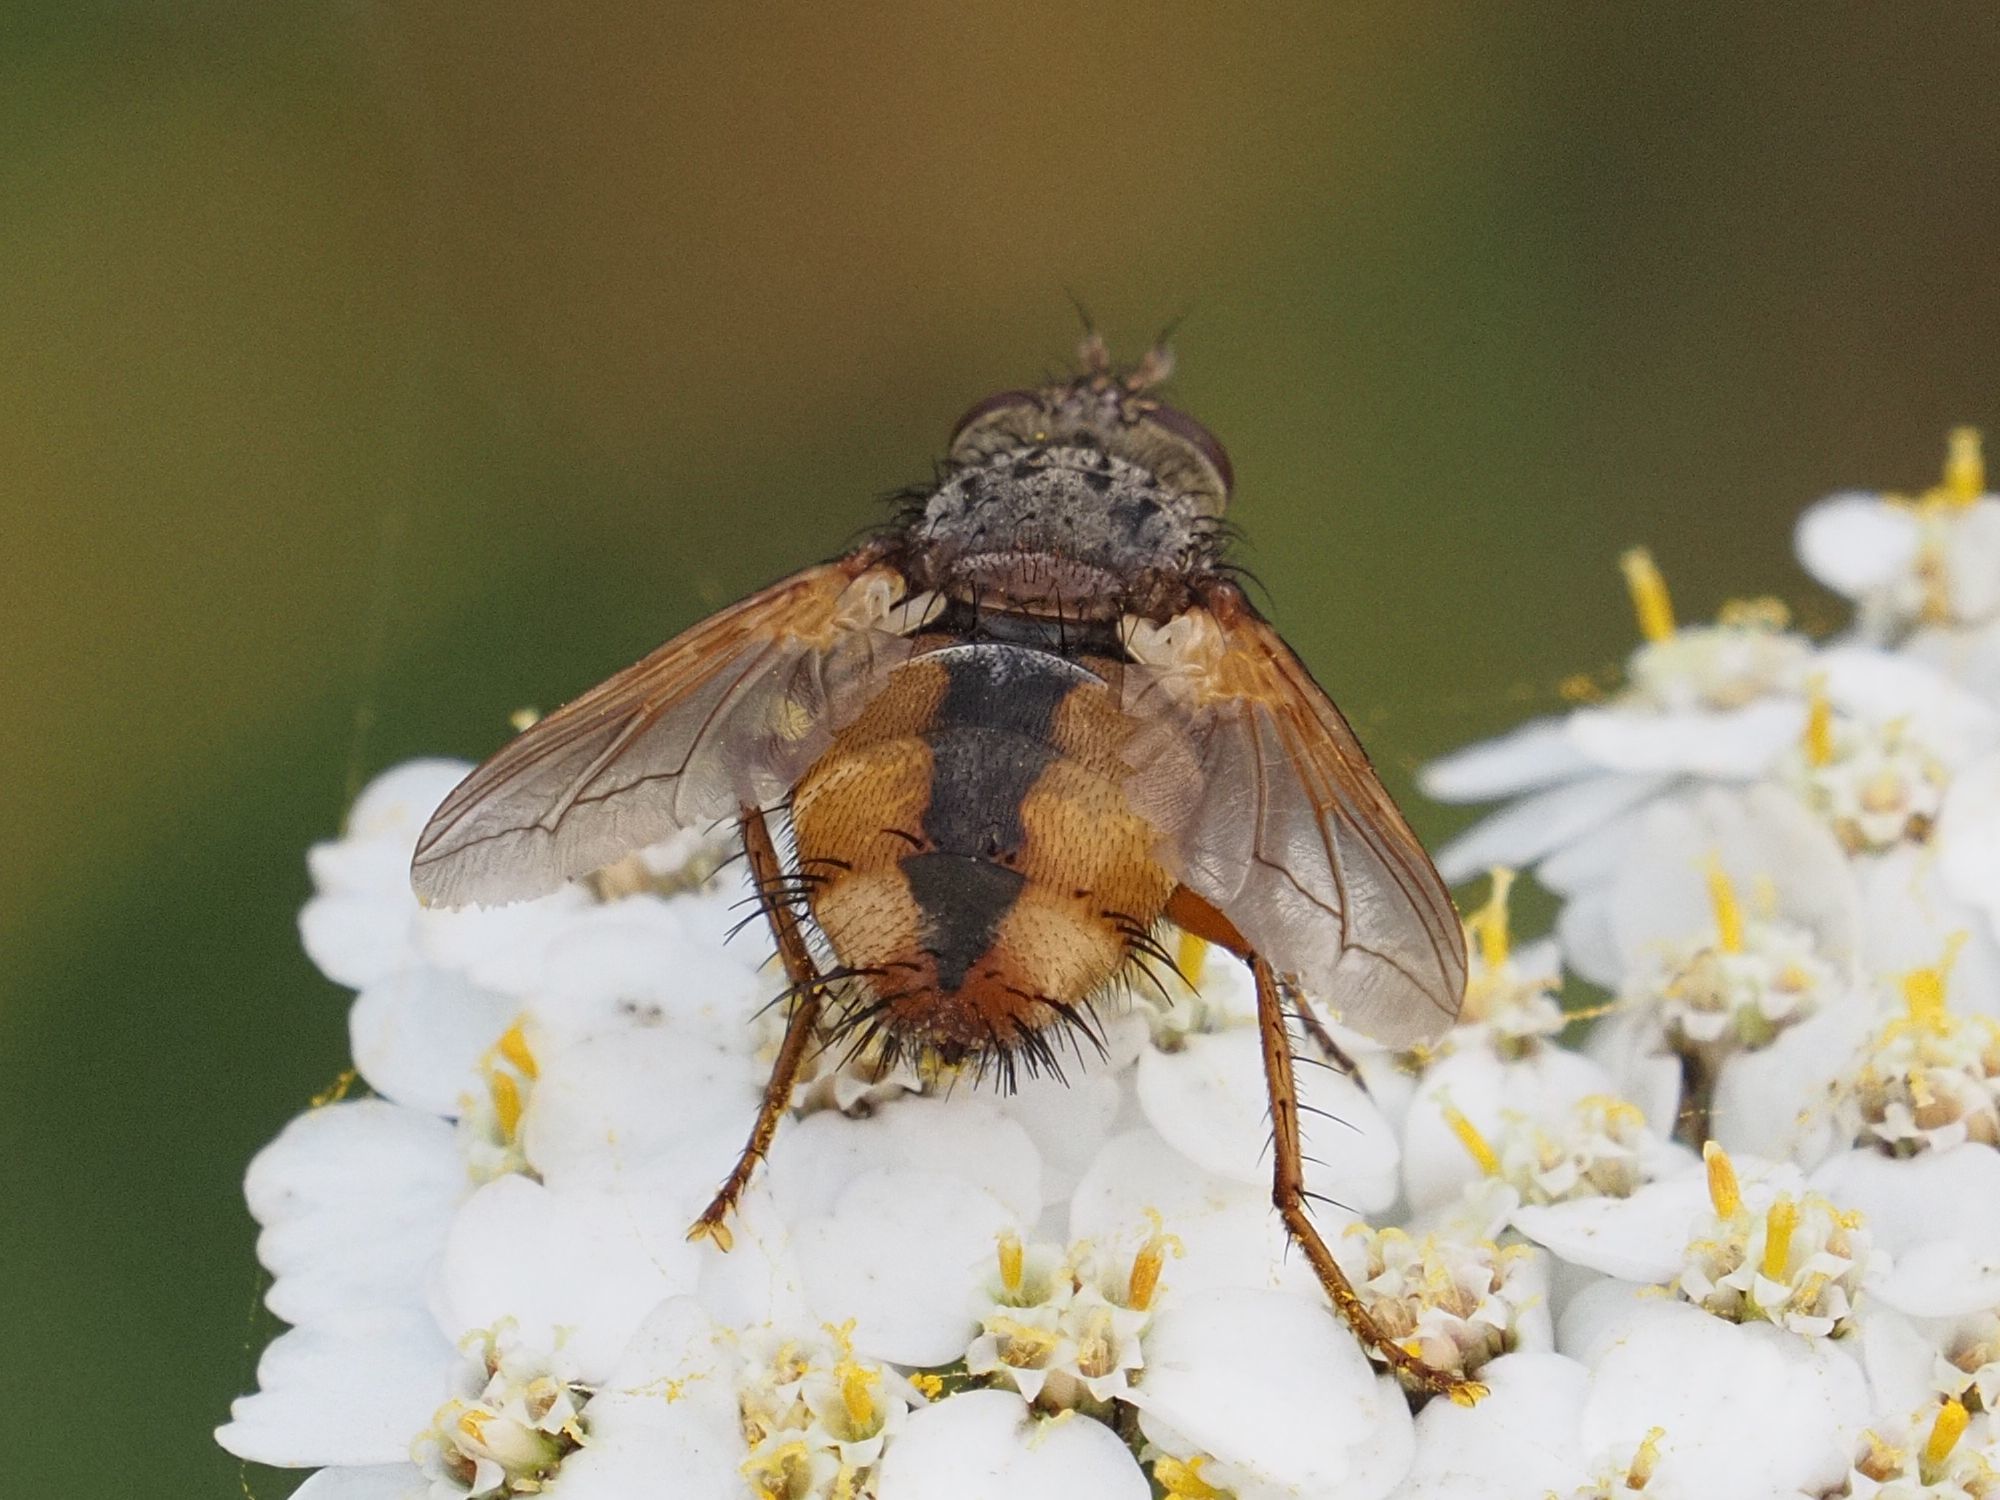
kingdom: Animalia
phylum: Arthropoda
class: Insecta
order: Diptera
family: Tachinidae
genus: Tachina
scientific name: Tachina fera
